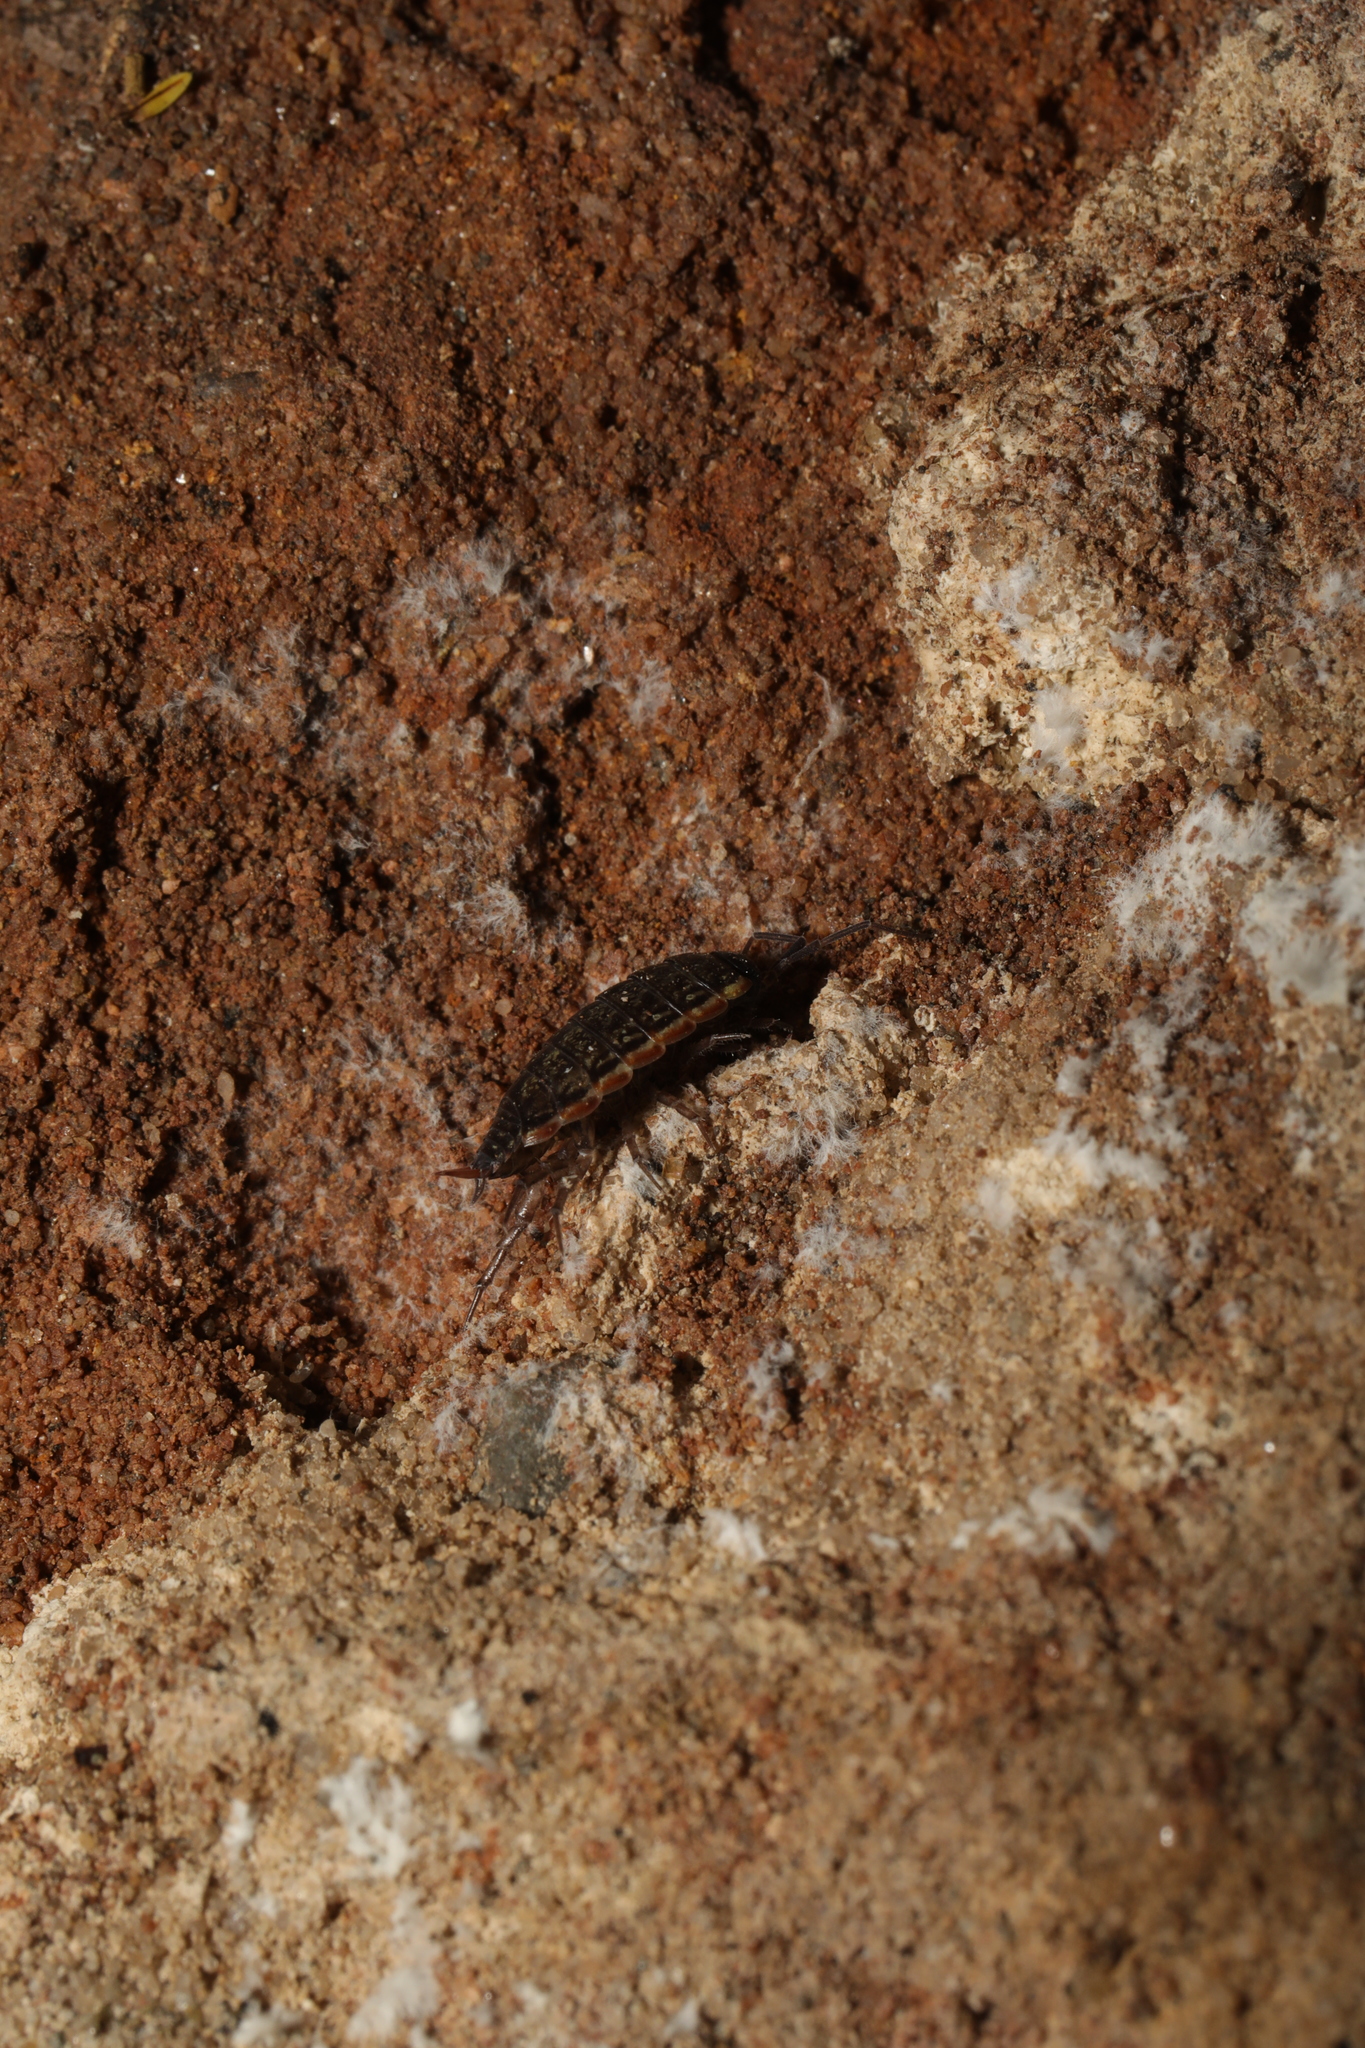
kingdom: Animalia
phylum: Arthropoda
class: Malacostraca
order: Isopoda
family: Philosciidae
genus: Philoscia
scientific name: Philoscia muscorum
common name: Common striped woodlouse
